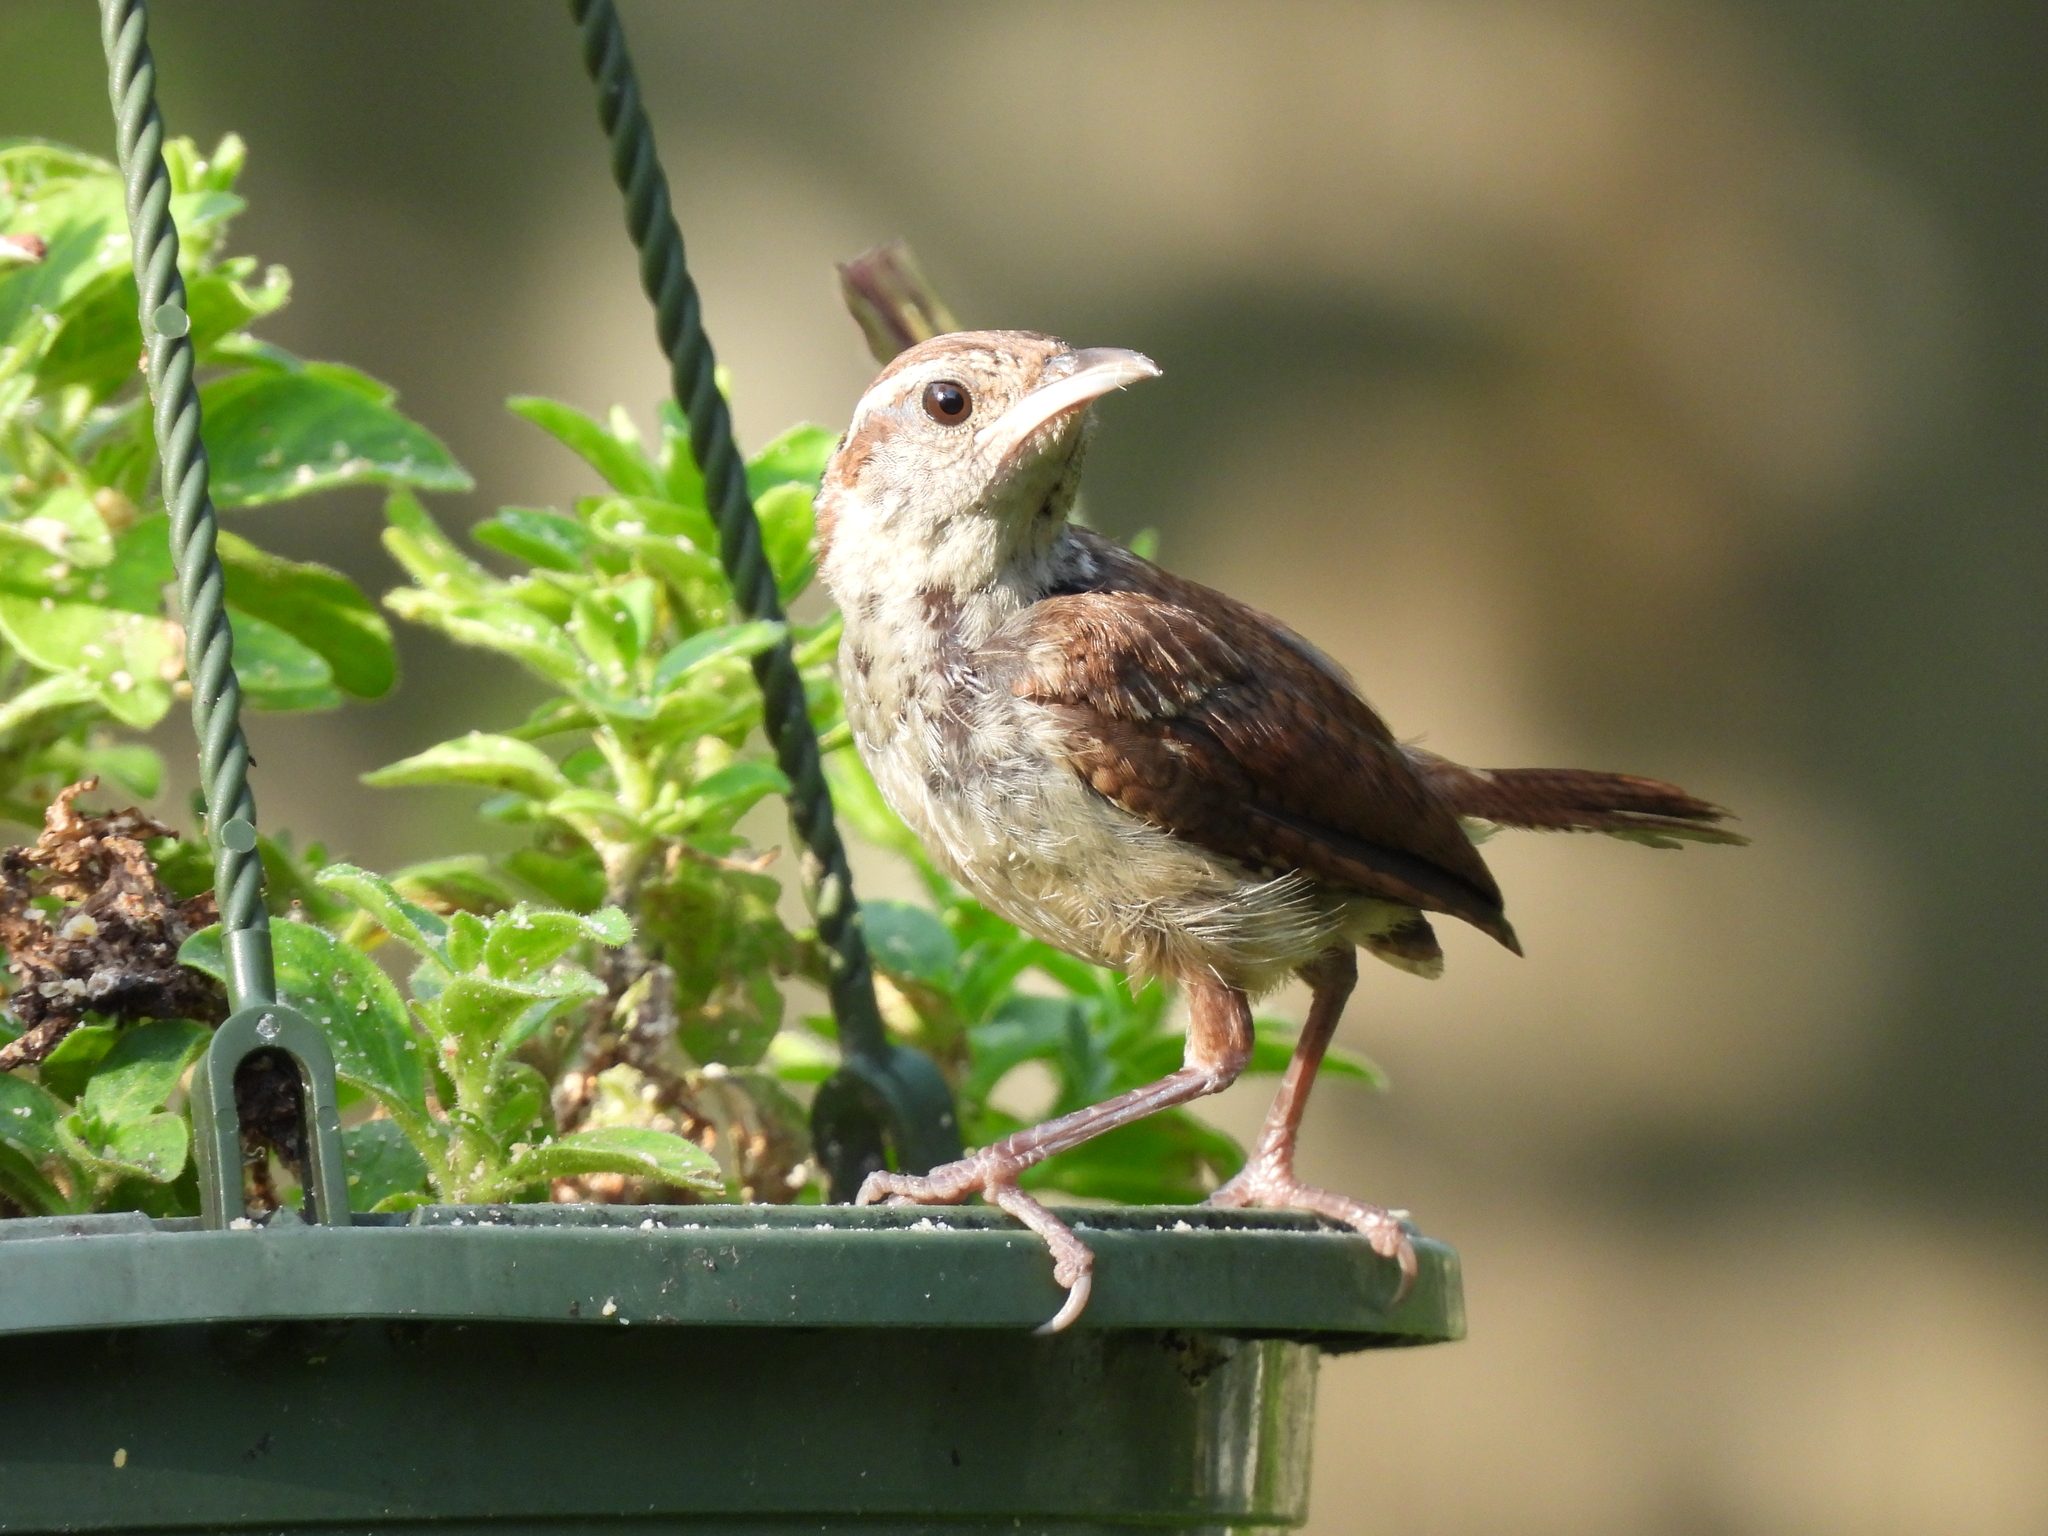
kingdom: Animalia
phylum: Chordata
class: Aves
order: Passeriformes
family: Troglodytidae
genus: Thryothorus
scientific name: Thryothorus ludovicianus
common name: Carolina wren
